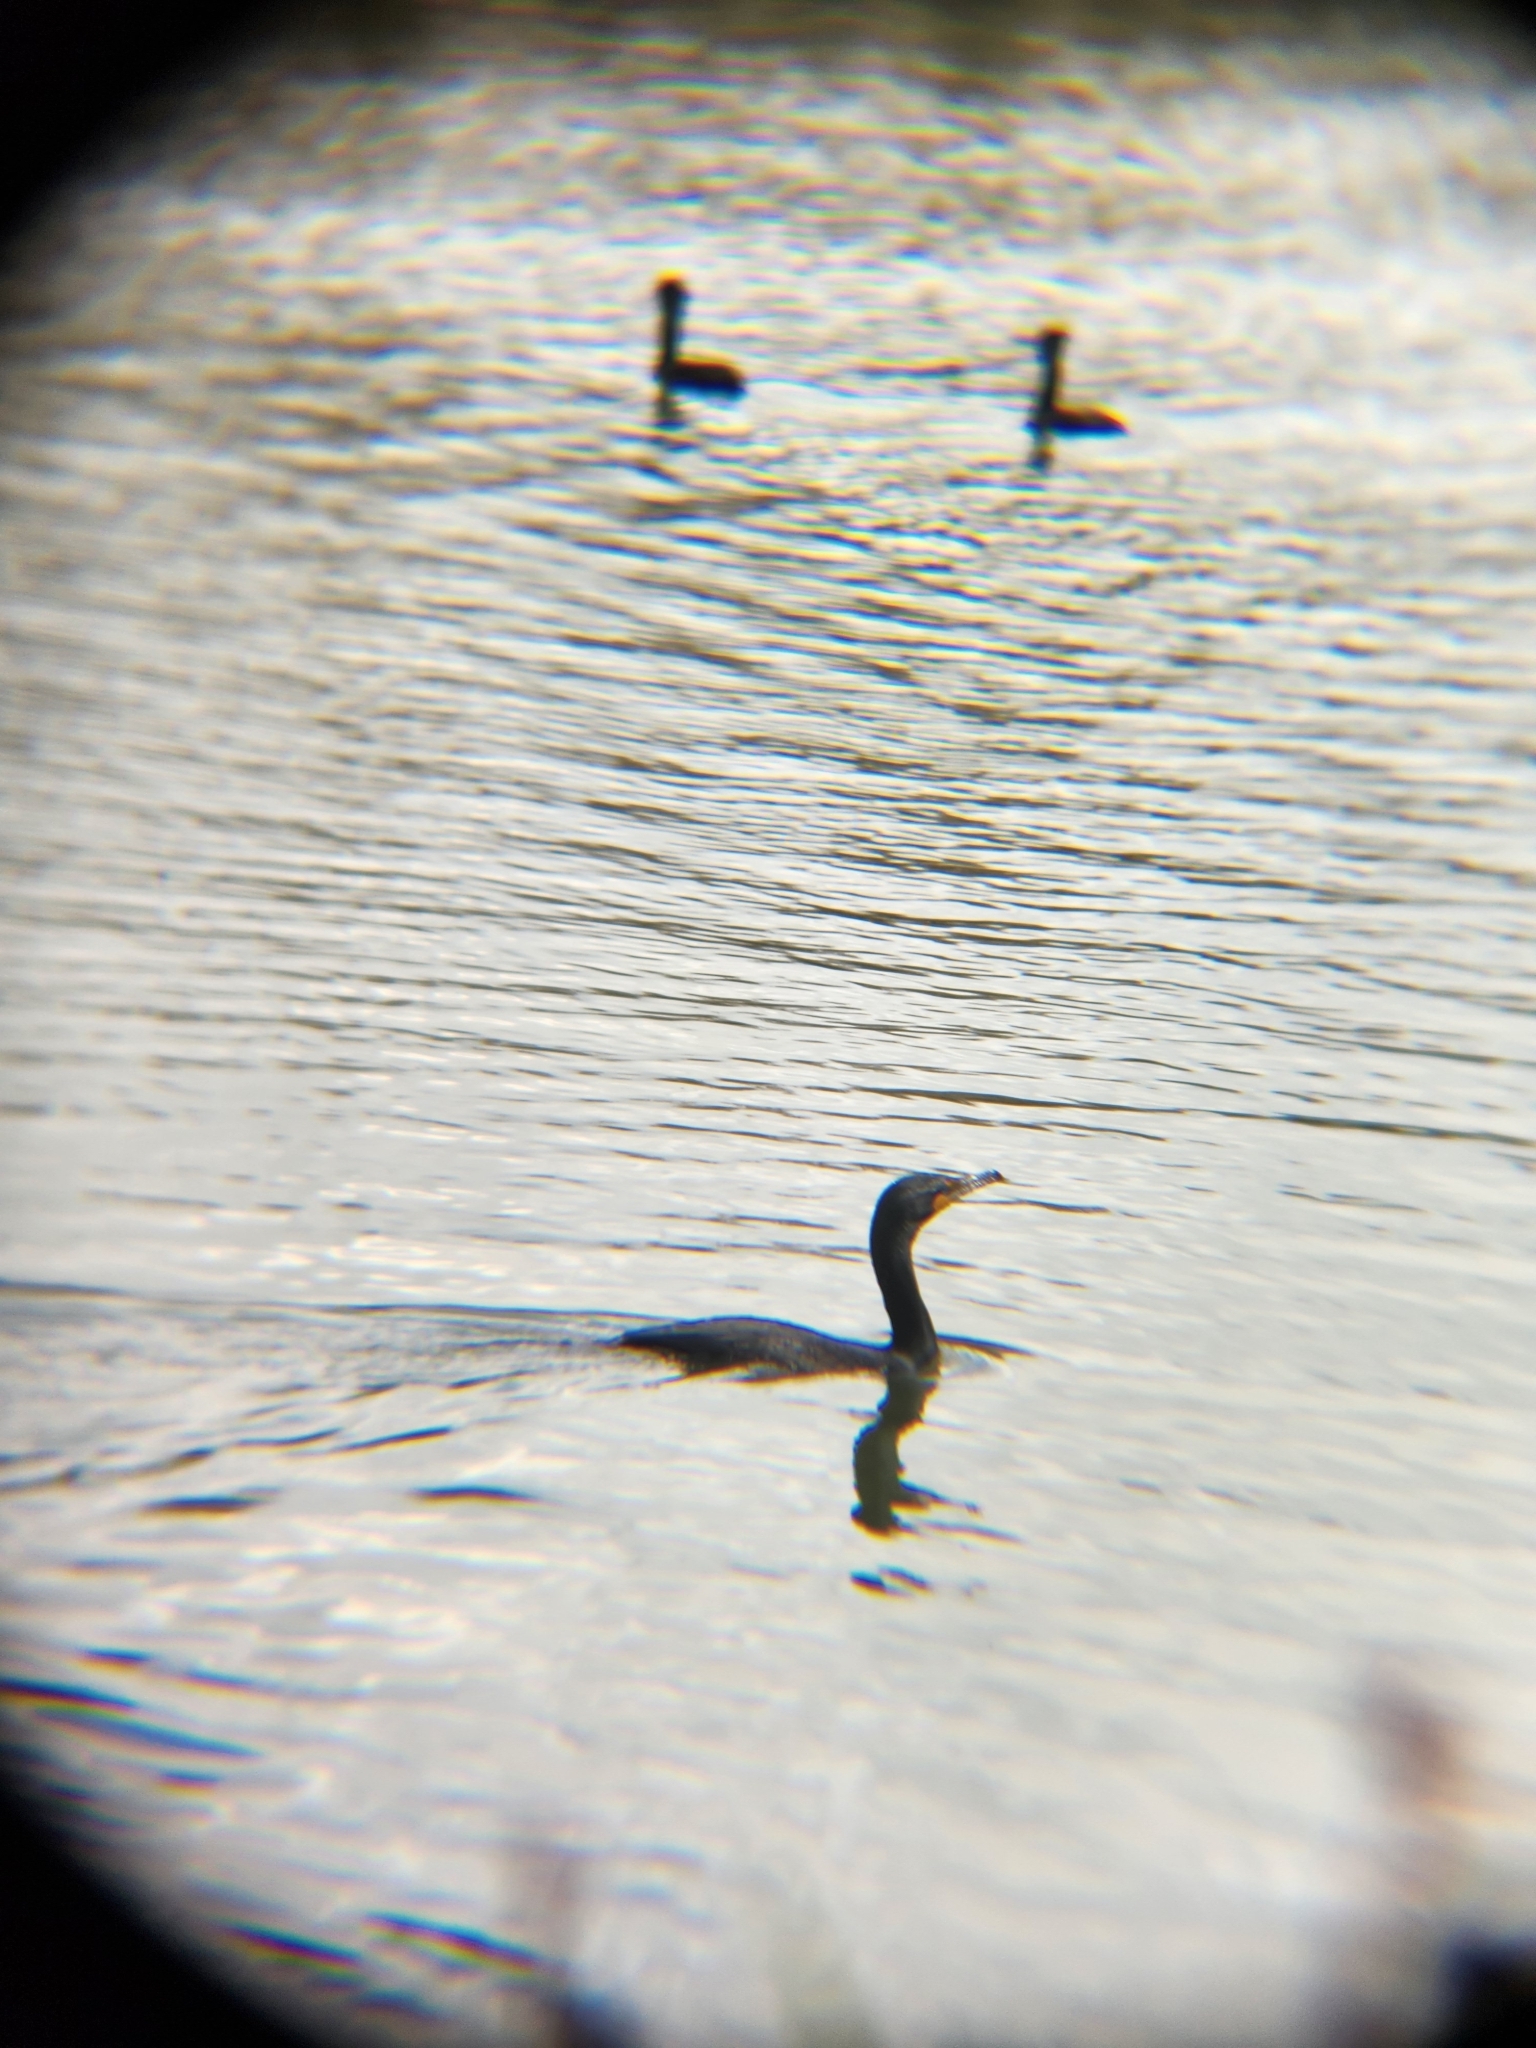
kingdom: Animalia
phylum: Chordata
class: Aves
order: Suliformes
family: Phalacrocoracidae
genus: Phalacrocorax
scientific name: Phalacrocorax auritus
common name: Double-crested cormorant
